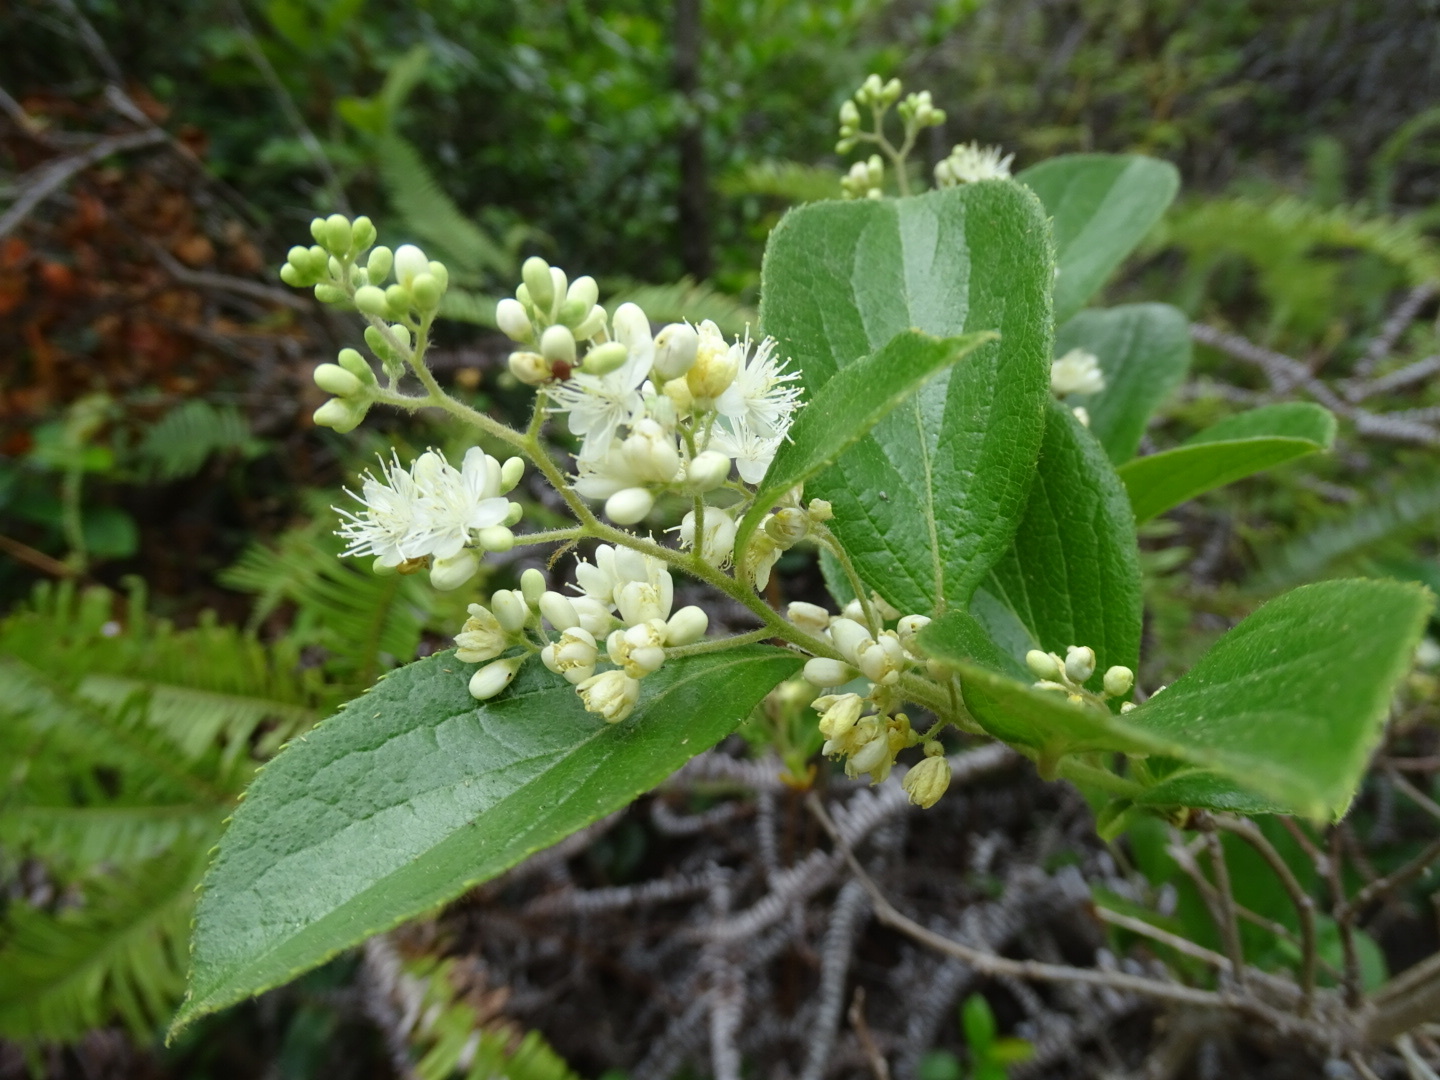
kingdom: Plantae
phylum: Tracheophyta
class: Magnoliopsida
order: Ericales
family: Symplocaceae
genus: Symplocos
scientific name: Symplocos paniculata
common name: Sapphire-berry
